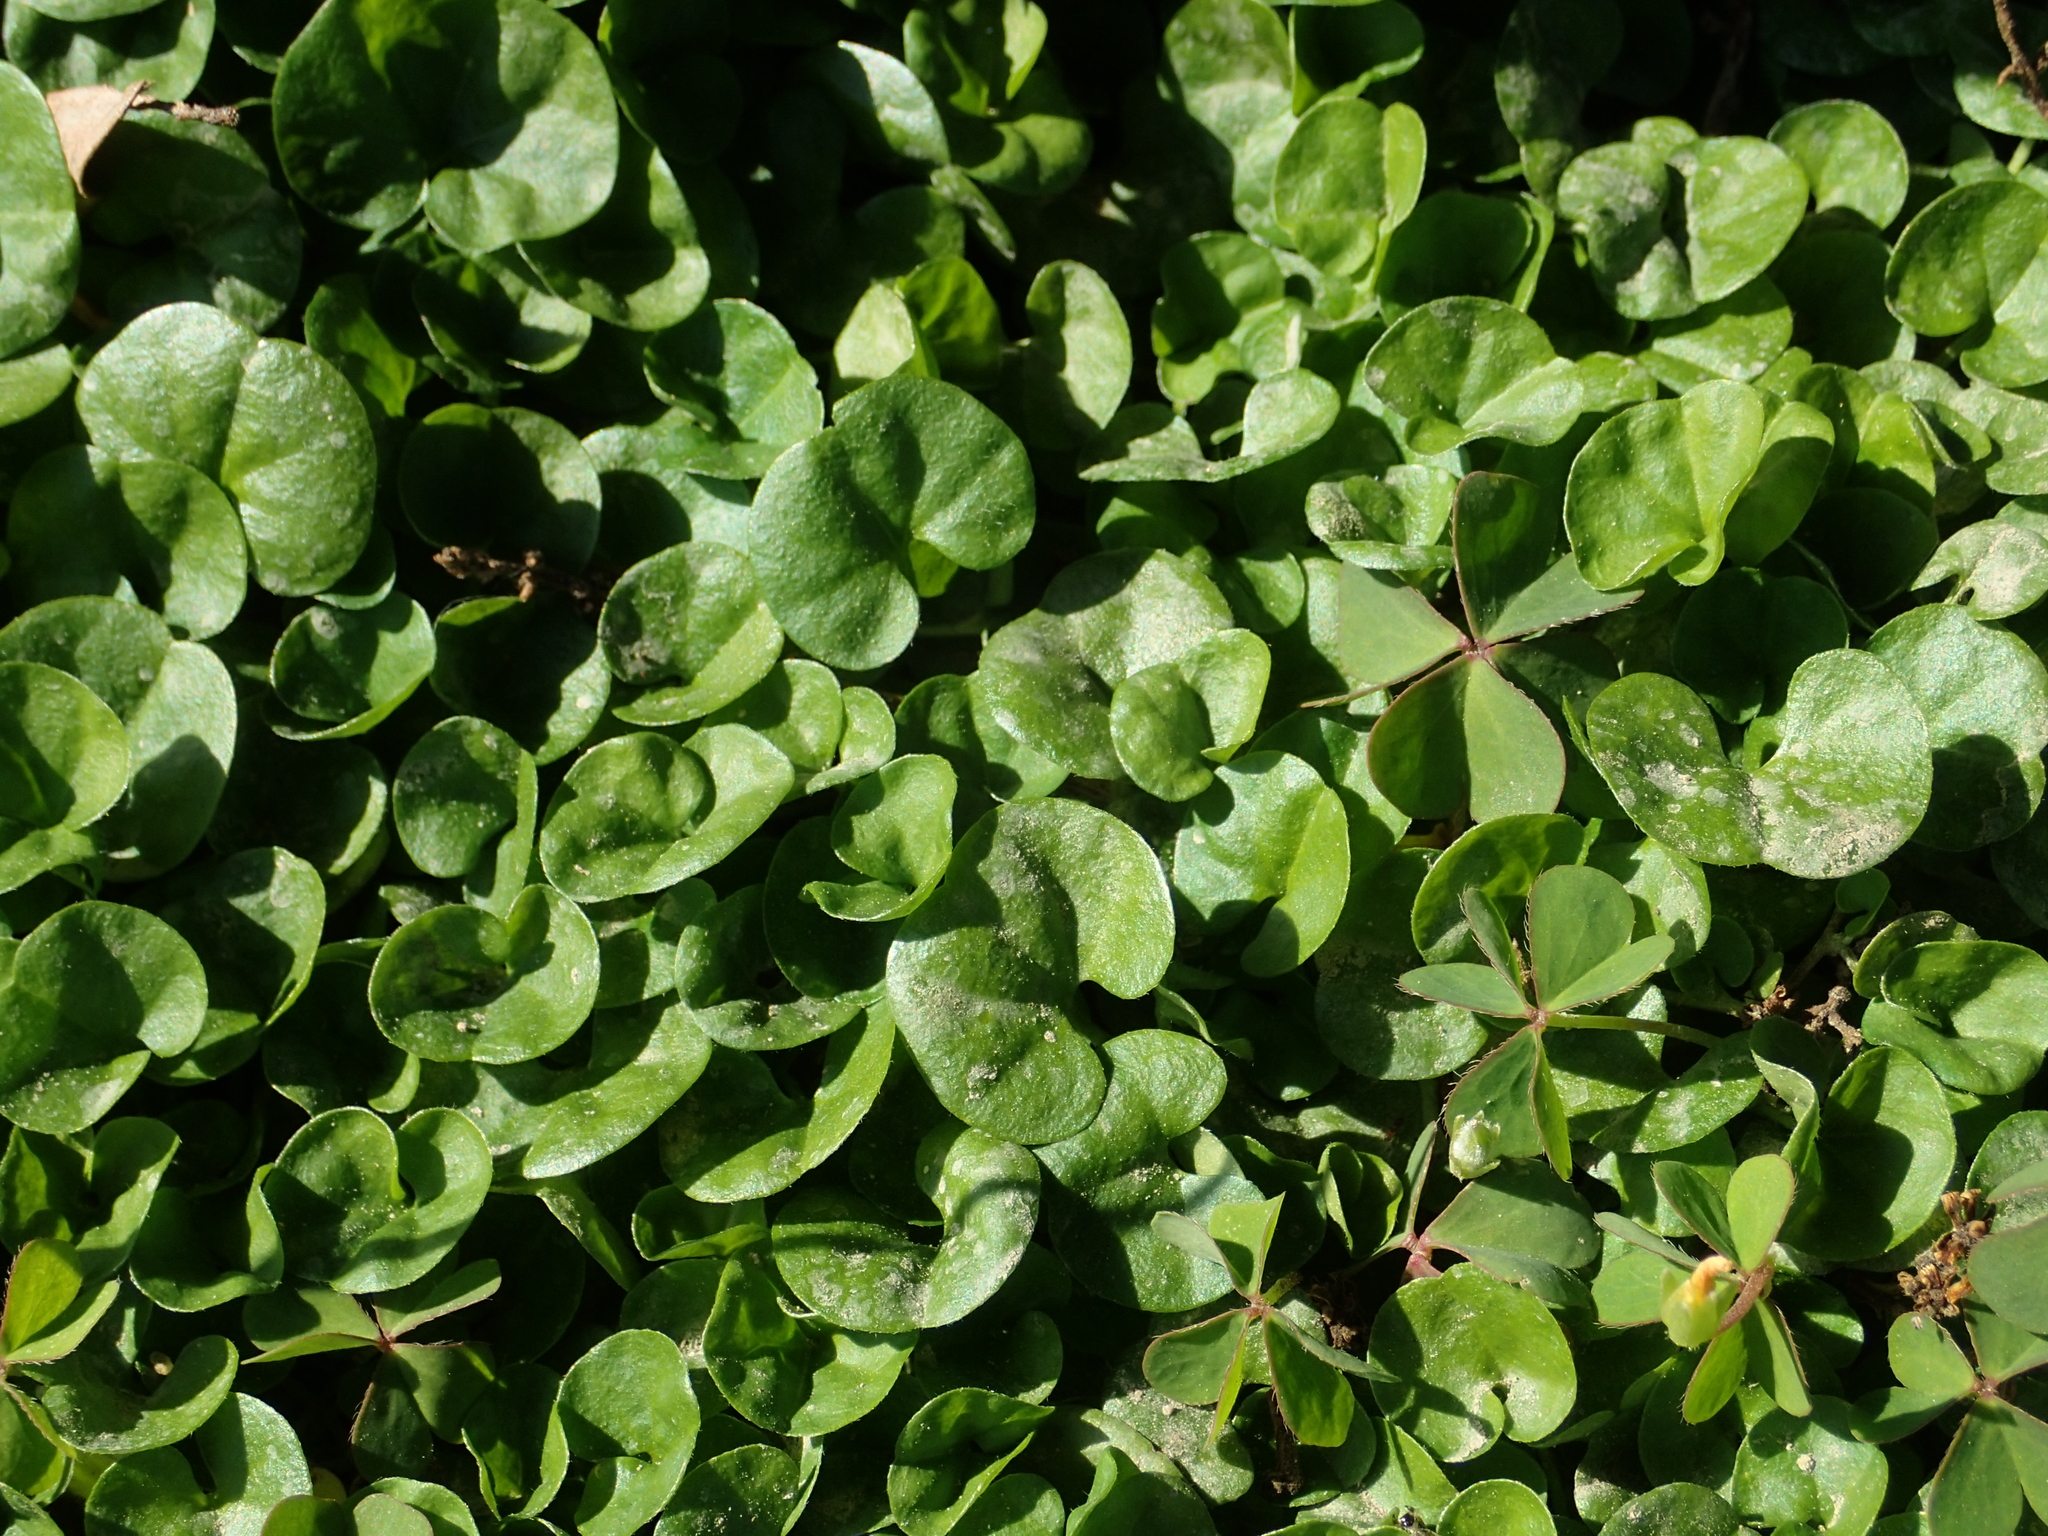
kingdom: Plantae
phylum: Tracheophyta
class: Magnoliopsida
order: Solanales
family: Convolvulaceae
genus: Dichondra
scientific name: Dichondra micrantha
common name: Kidneyweed
